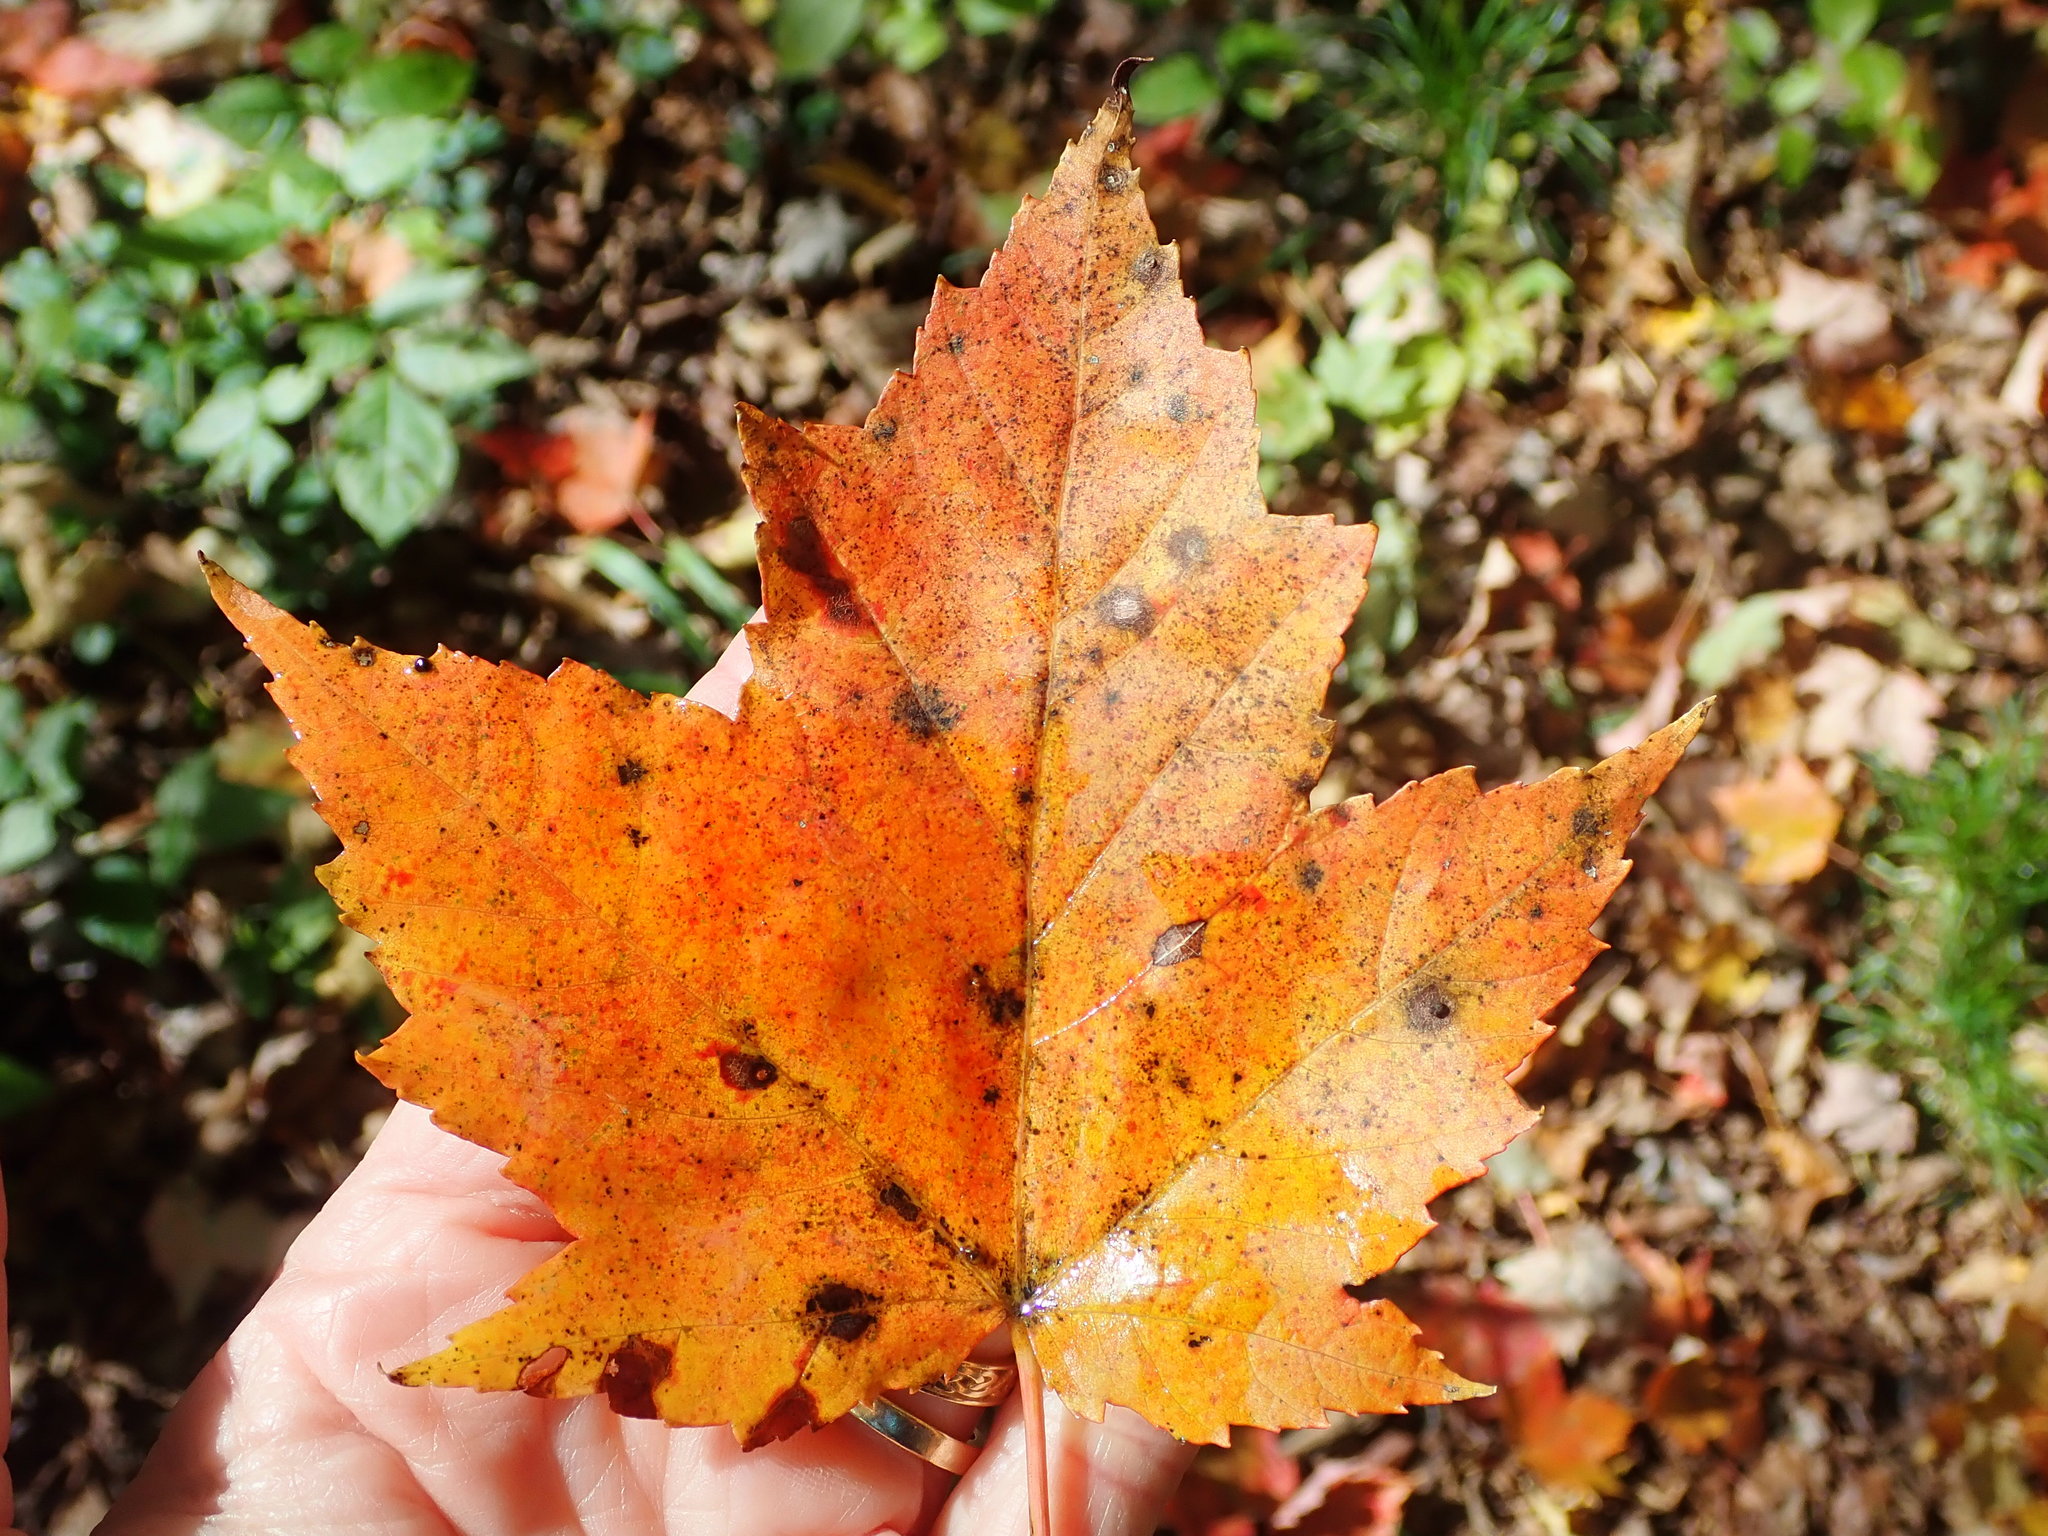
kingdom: Plantae
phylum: Tracheophyta
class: Magnoliopsida
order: Sapindales
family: Sapindaceae
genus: Acer
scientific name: Acer rubrum
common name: Red maple
